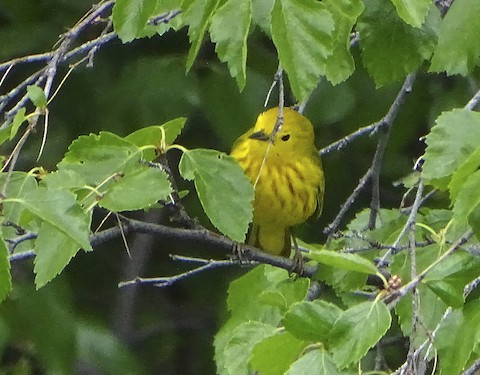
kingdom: Animalia
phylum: Chordata
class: Aves
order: Passeriformes
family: Parulidae
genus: Setophaga
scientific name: Setophaga petechia
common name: Yellow warbler
